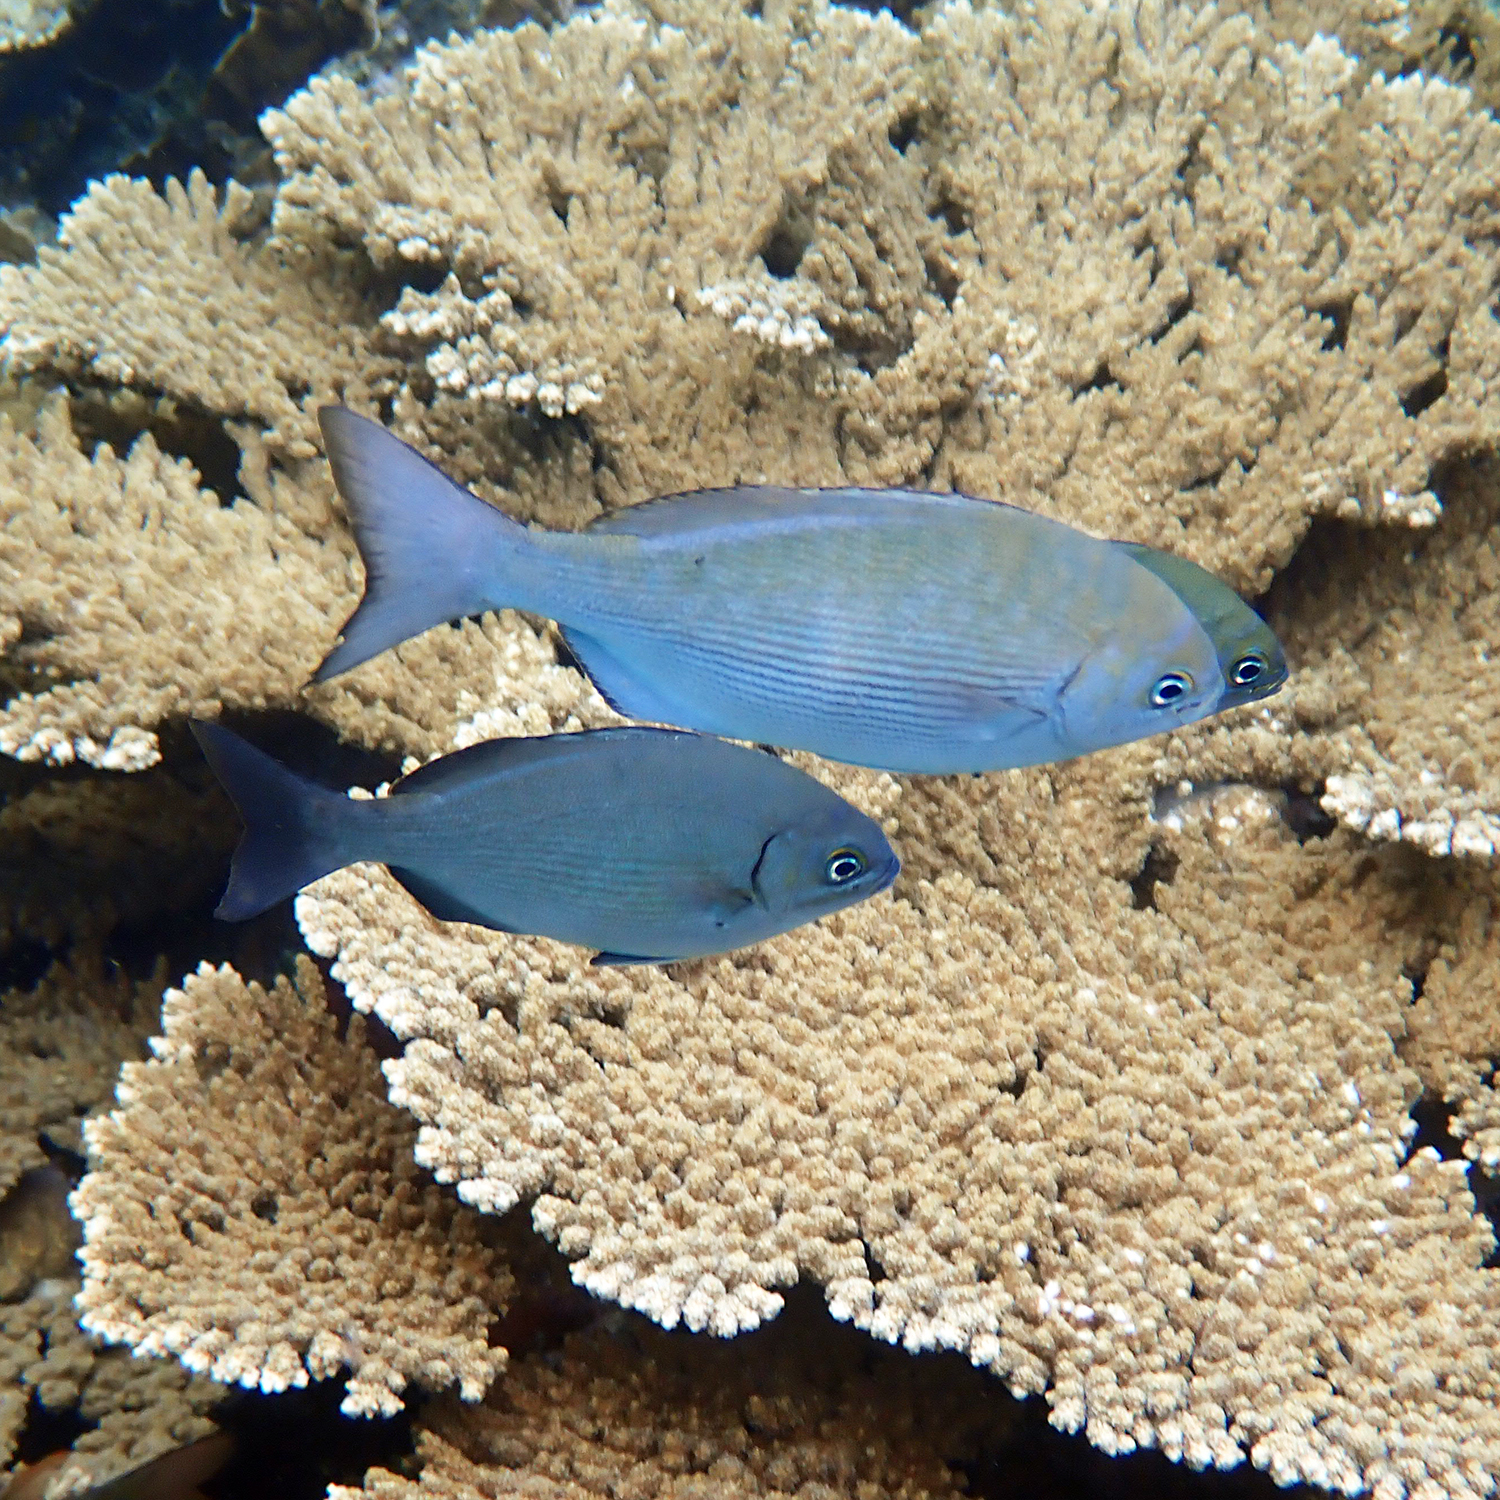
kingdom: Animalia
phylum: Chordata
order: Perciformes
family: Kyphosidae
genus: Girella
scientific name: Girella cyanea
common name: Bluefish
